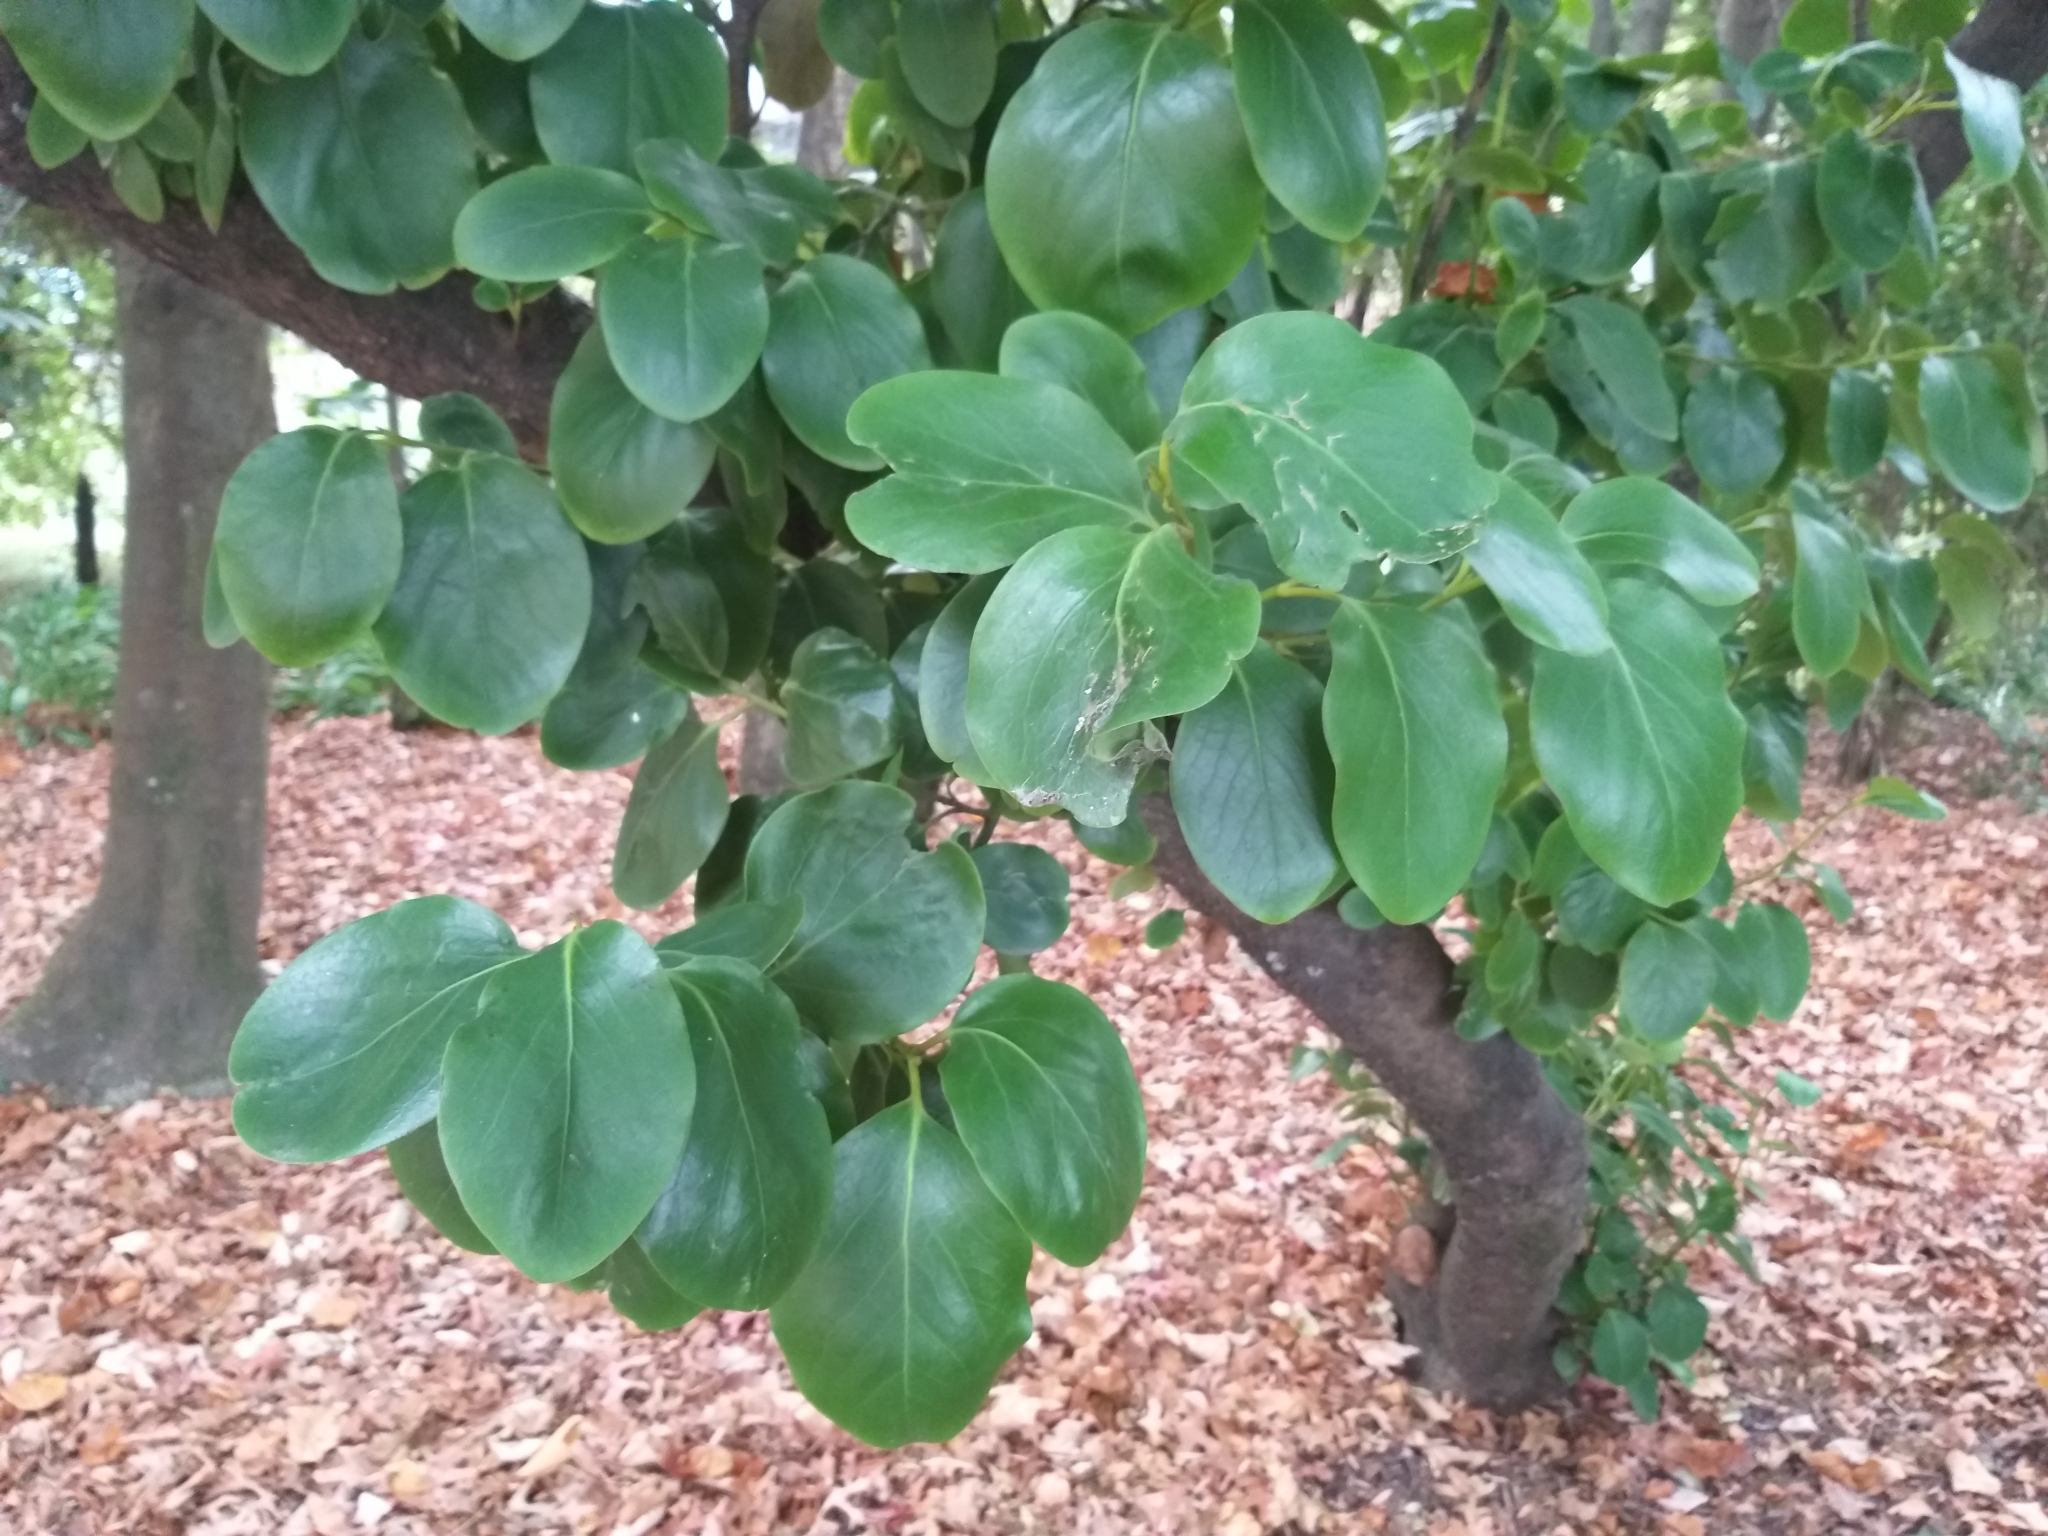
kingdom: Plantae
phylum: Tracheophyta
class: Magnoliopsida
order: Apiales
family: Griseliniaceae
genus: Griselinia
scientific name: Griselinia littoralis
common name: New zealand broadleaf
